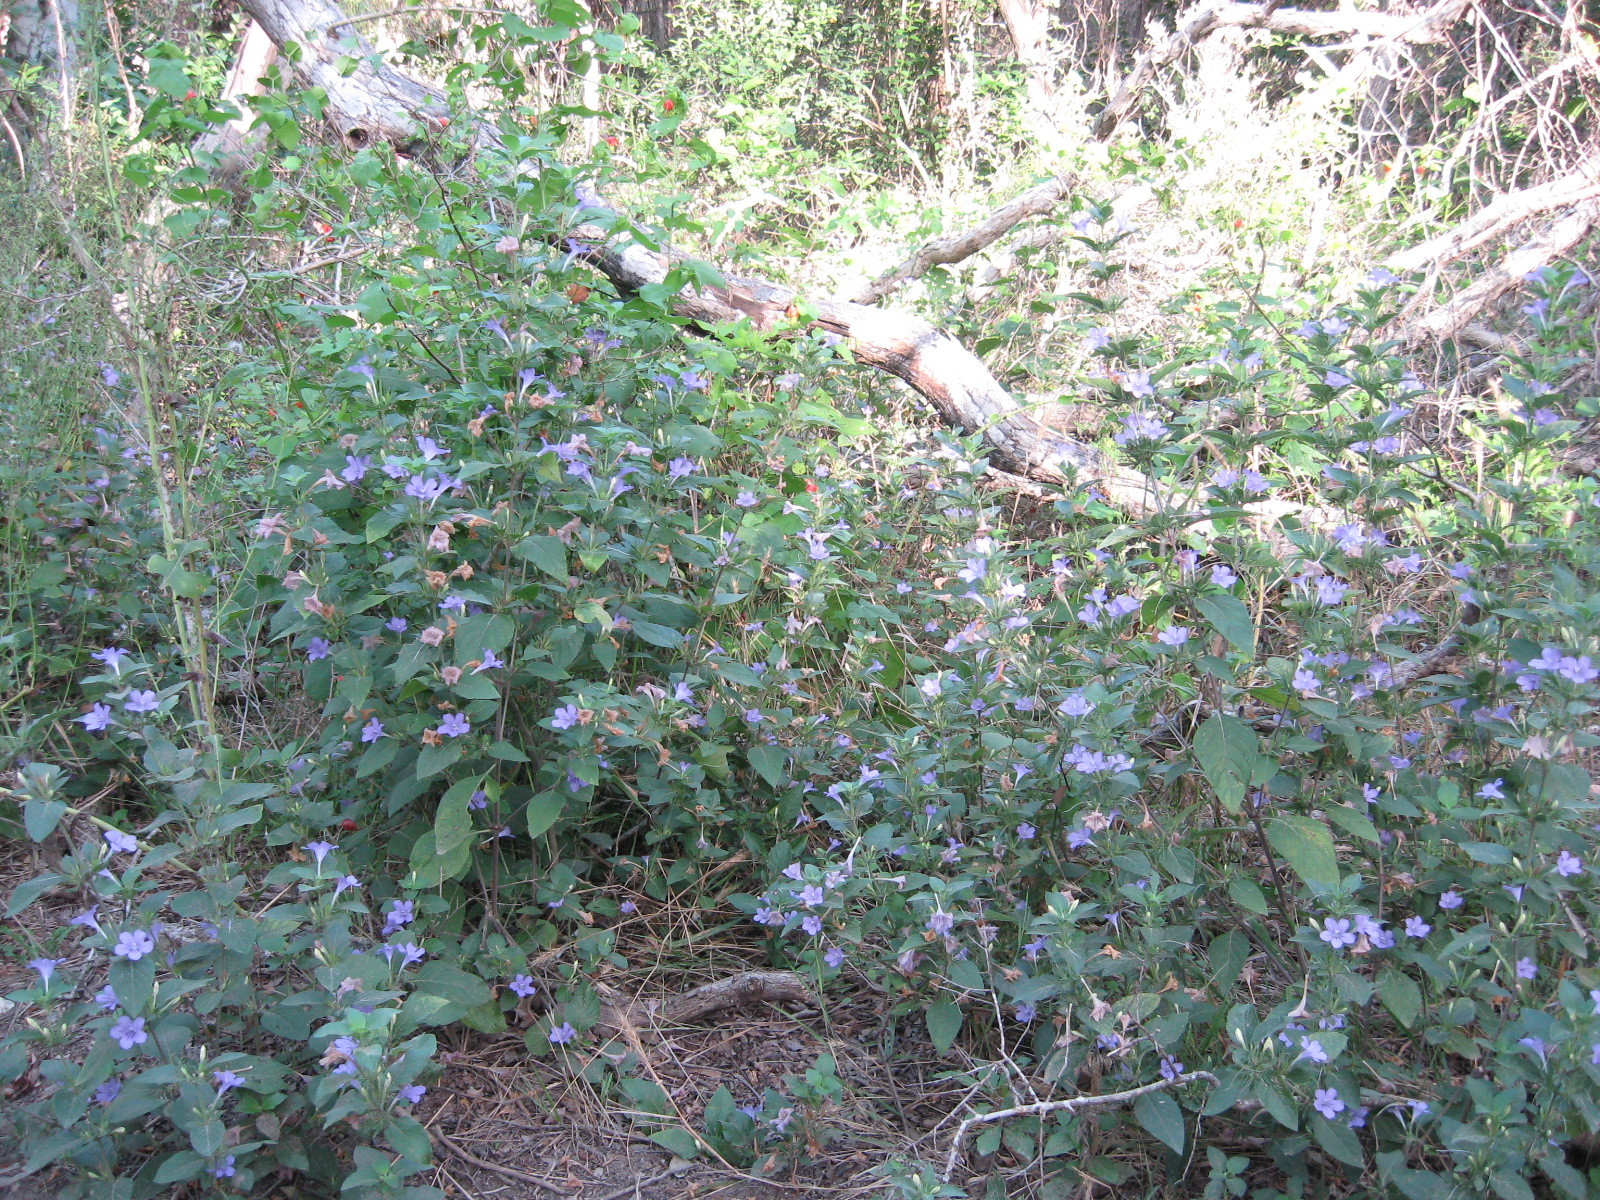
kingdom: Plantae
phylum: Tracheophyta
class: Magnoliopsida
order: Lamiales
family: Acanthaceae
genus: Ruellia
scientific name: Ruellia drummondiana
